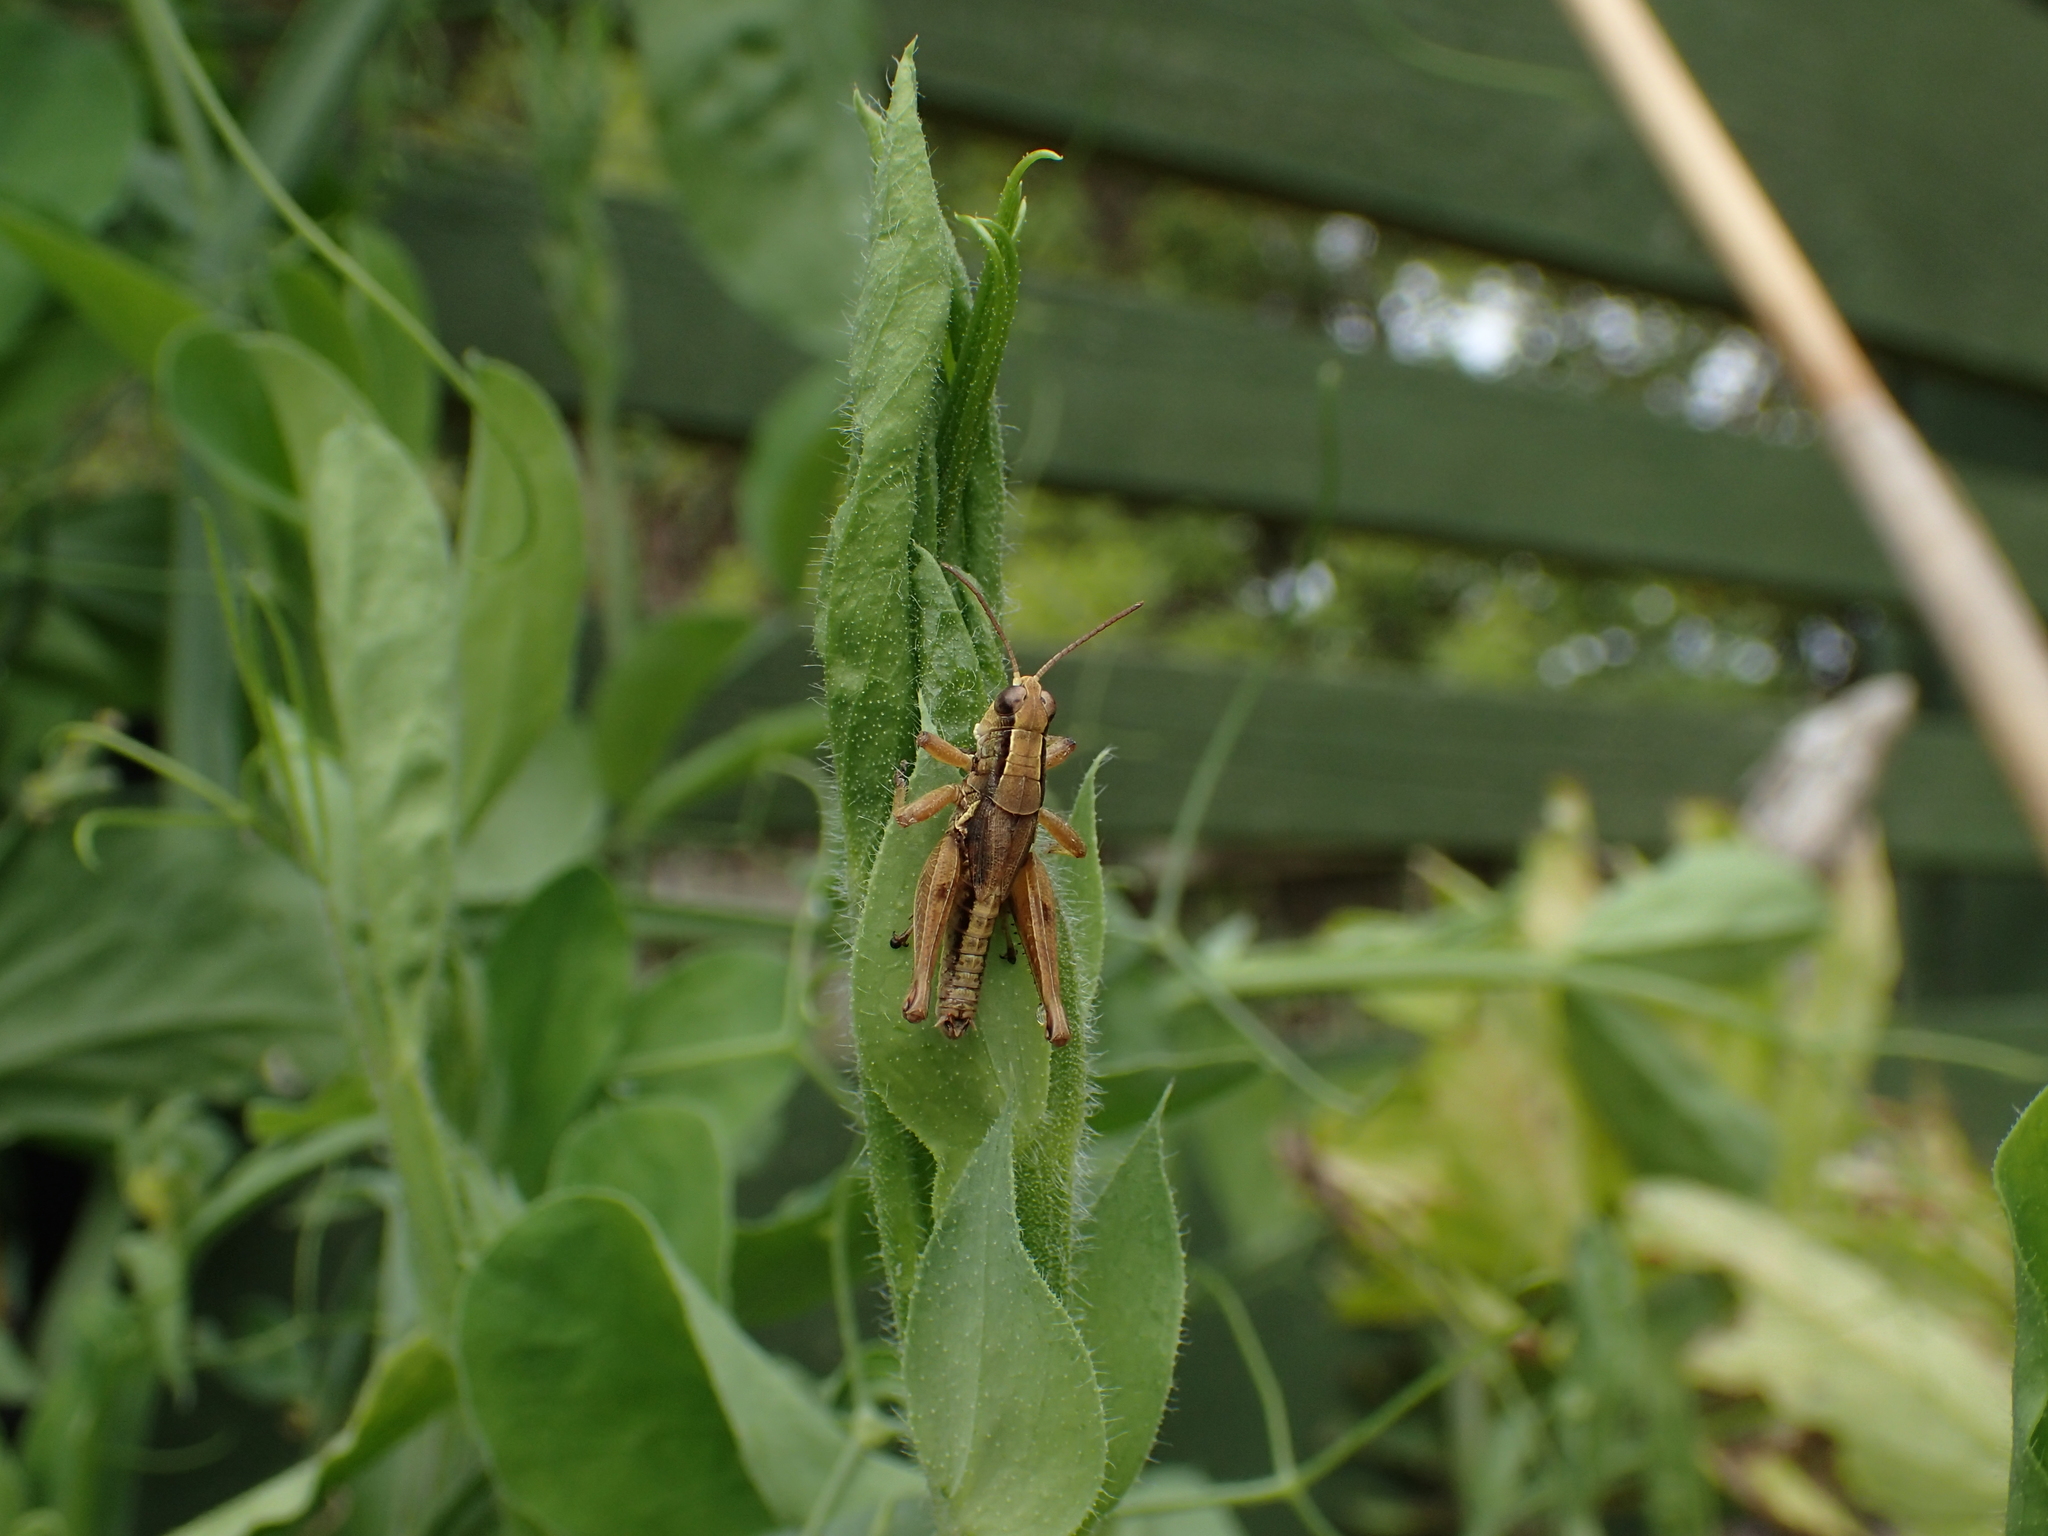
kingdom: Animalia
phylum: Arthropoda
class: Insecta
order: Orthoptera
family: Acrididae
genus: Phaulacridium
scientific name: Phaulacridium marginale
